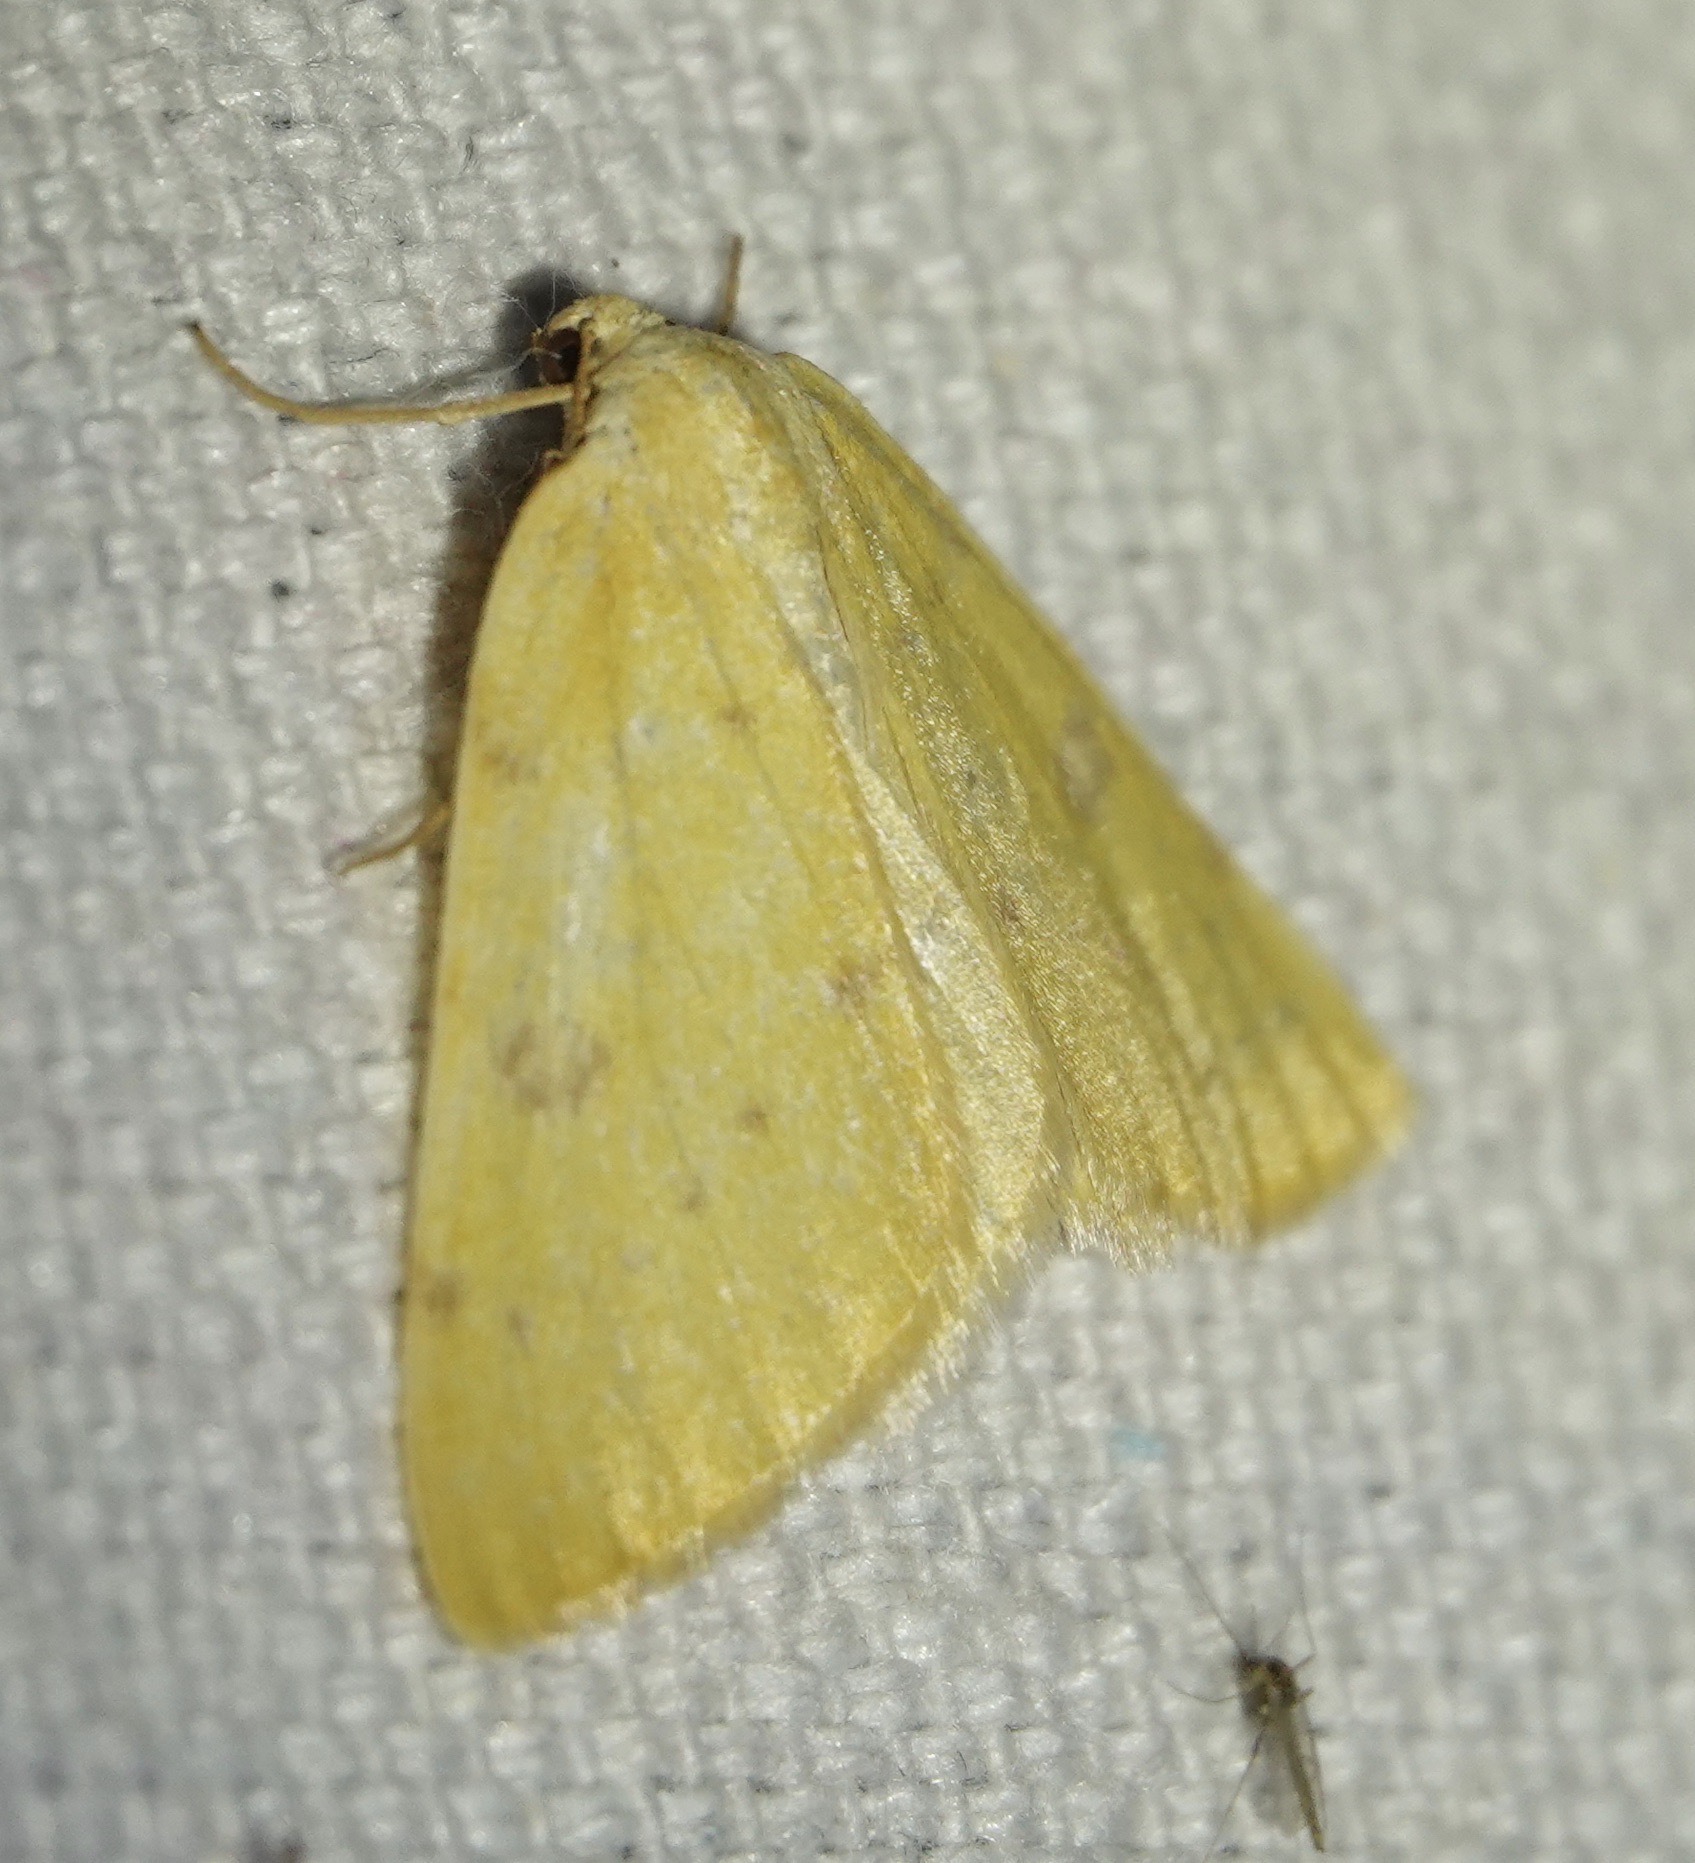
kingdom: Animalia
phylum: Arthropoda
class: Insecta
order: Lepidoptera
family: Geometridae
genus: Hesperumia
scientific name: Hesperumia sulphuraria
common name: Sulphur moth
